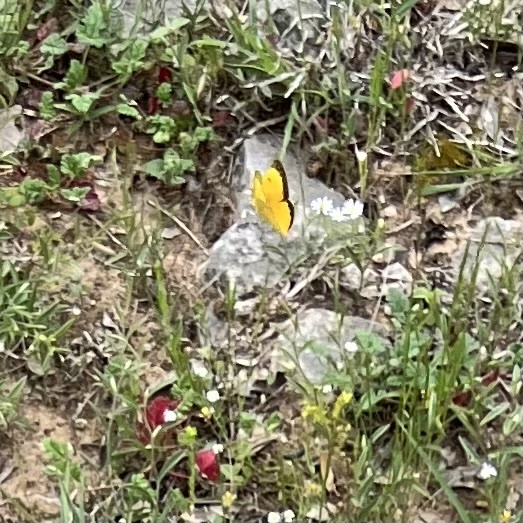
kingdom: Animalia
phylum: Arthropoda
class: Insecta
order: Lepidoptera
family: Pieridae
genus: Colias
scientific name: Colias eurytheme
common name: Alfalfa butterfly
